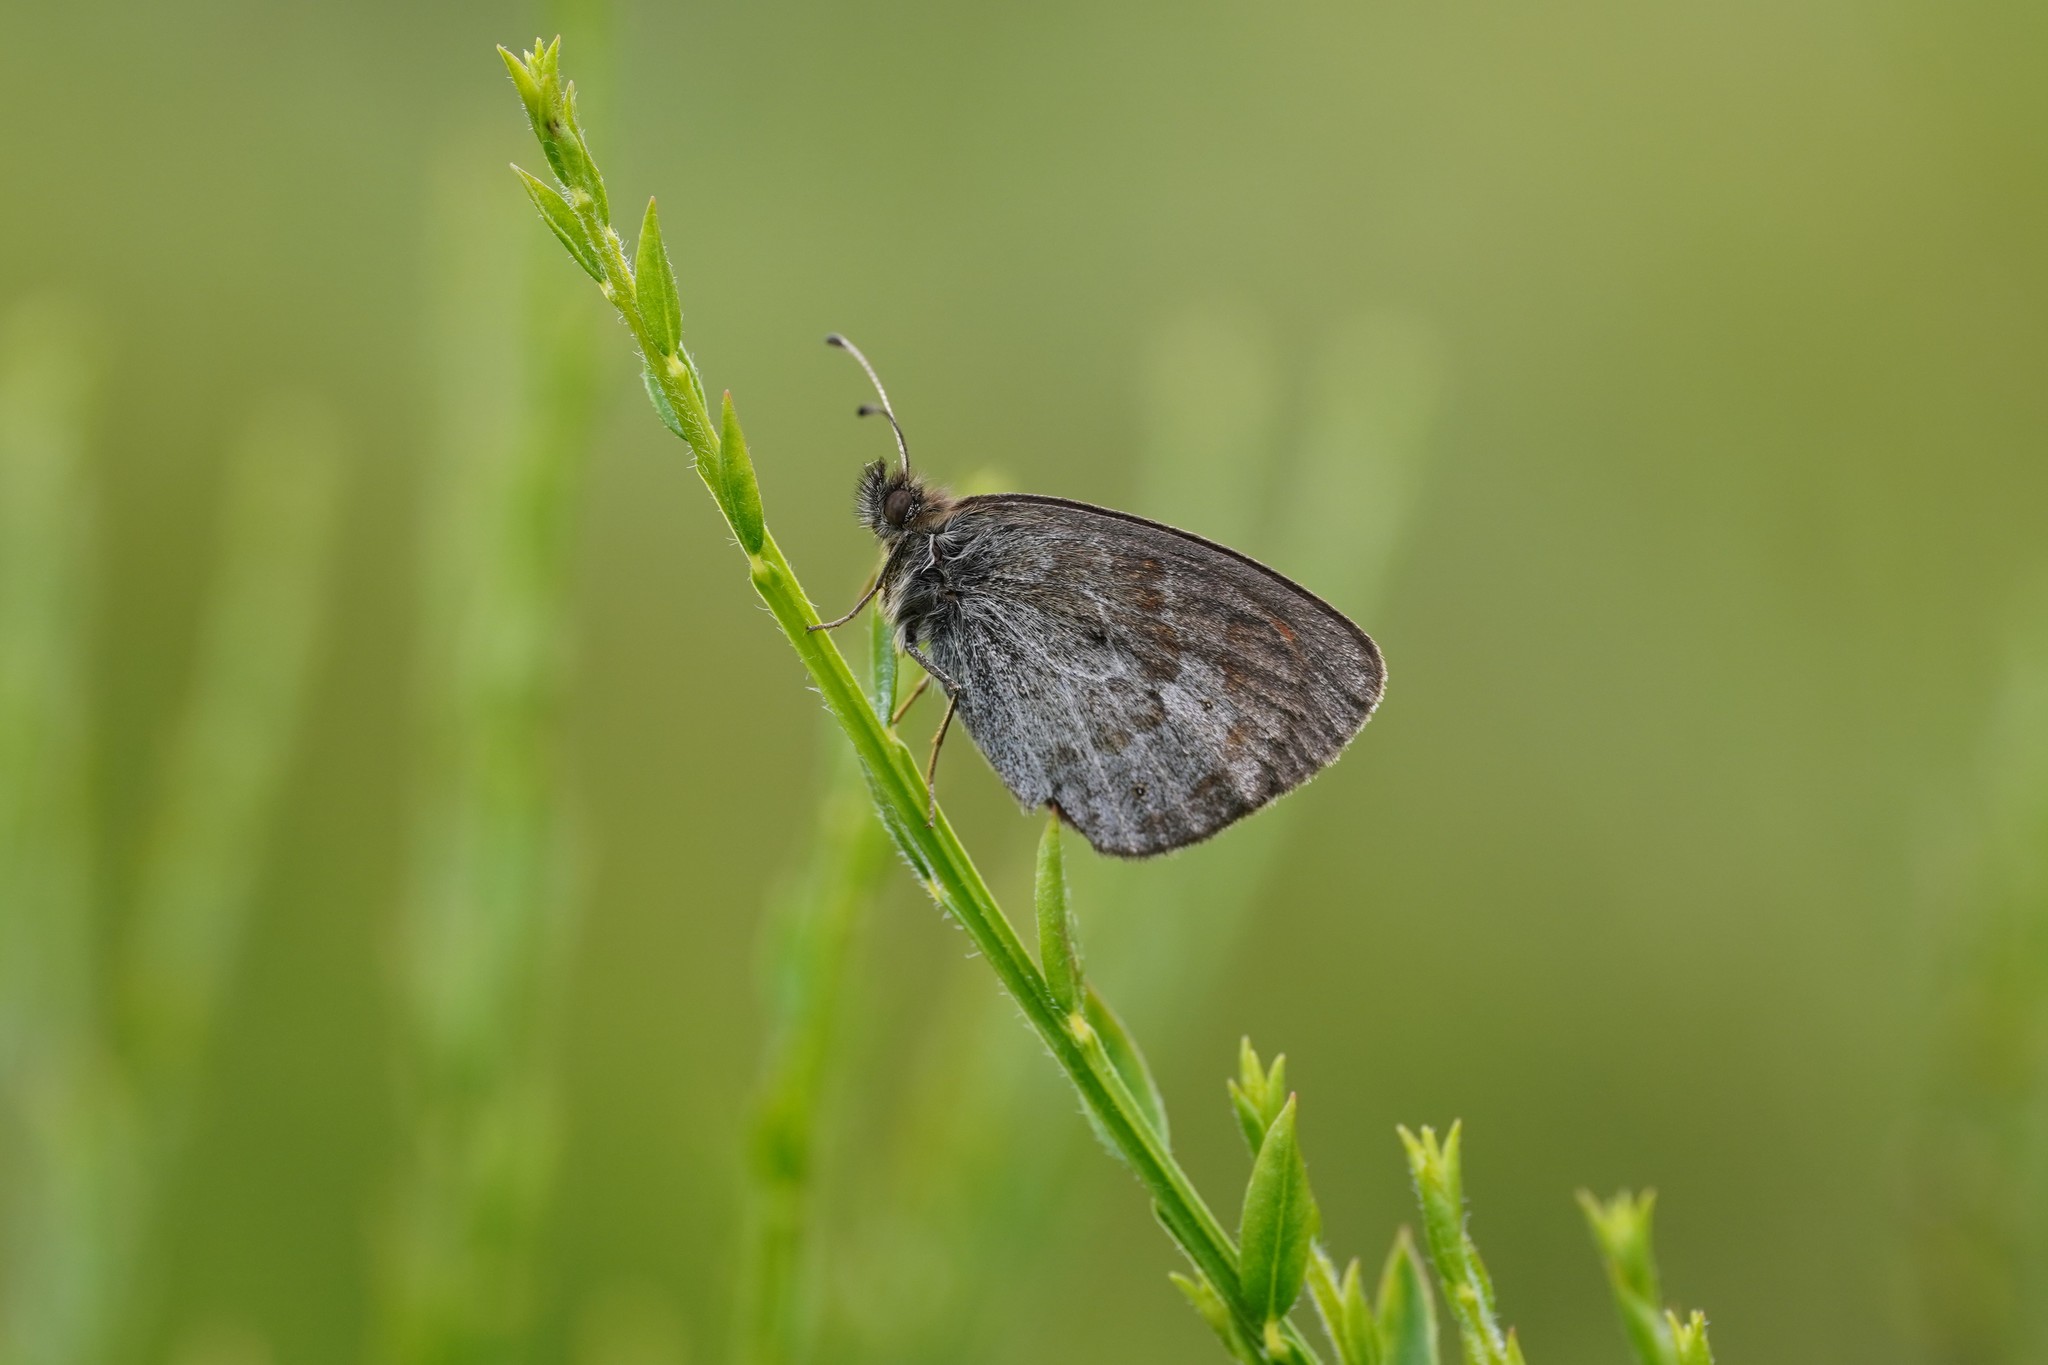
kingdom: Animalia
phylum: Arthropoda
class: Insecta
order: Lepidoptera
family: Nymphalidae
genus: Erebia
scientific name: Erebia tyndarus
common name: Swiss brassy ringlet
